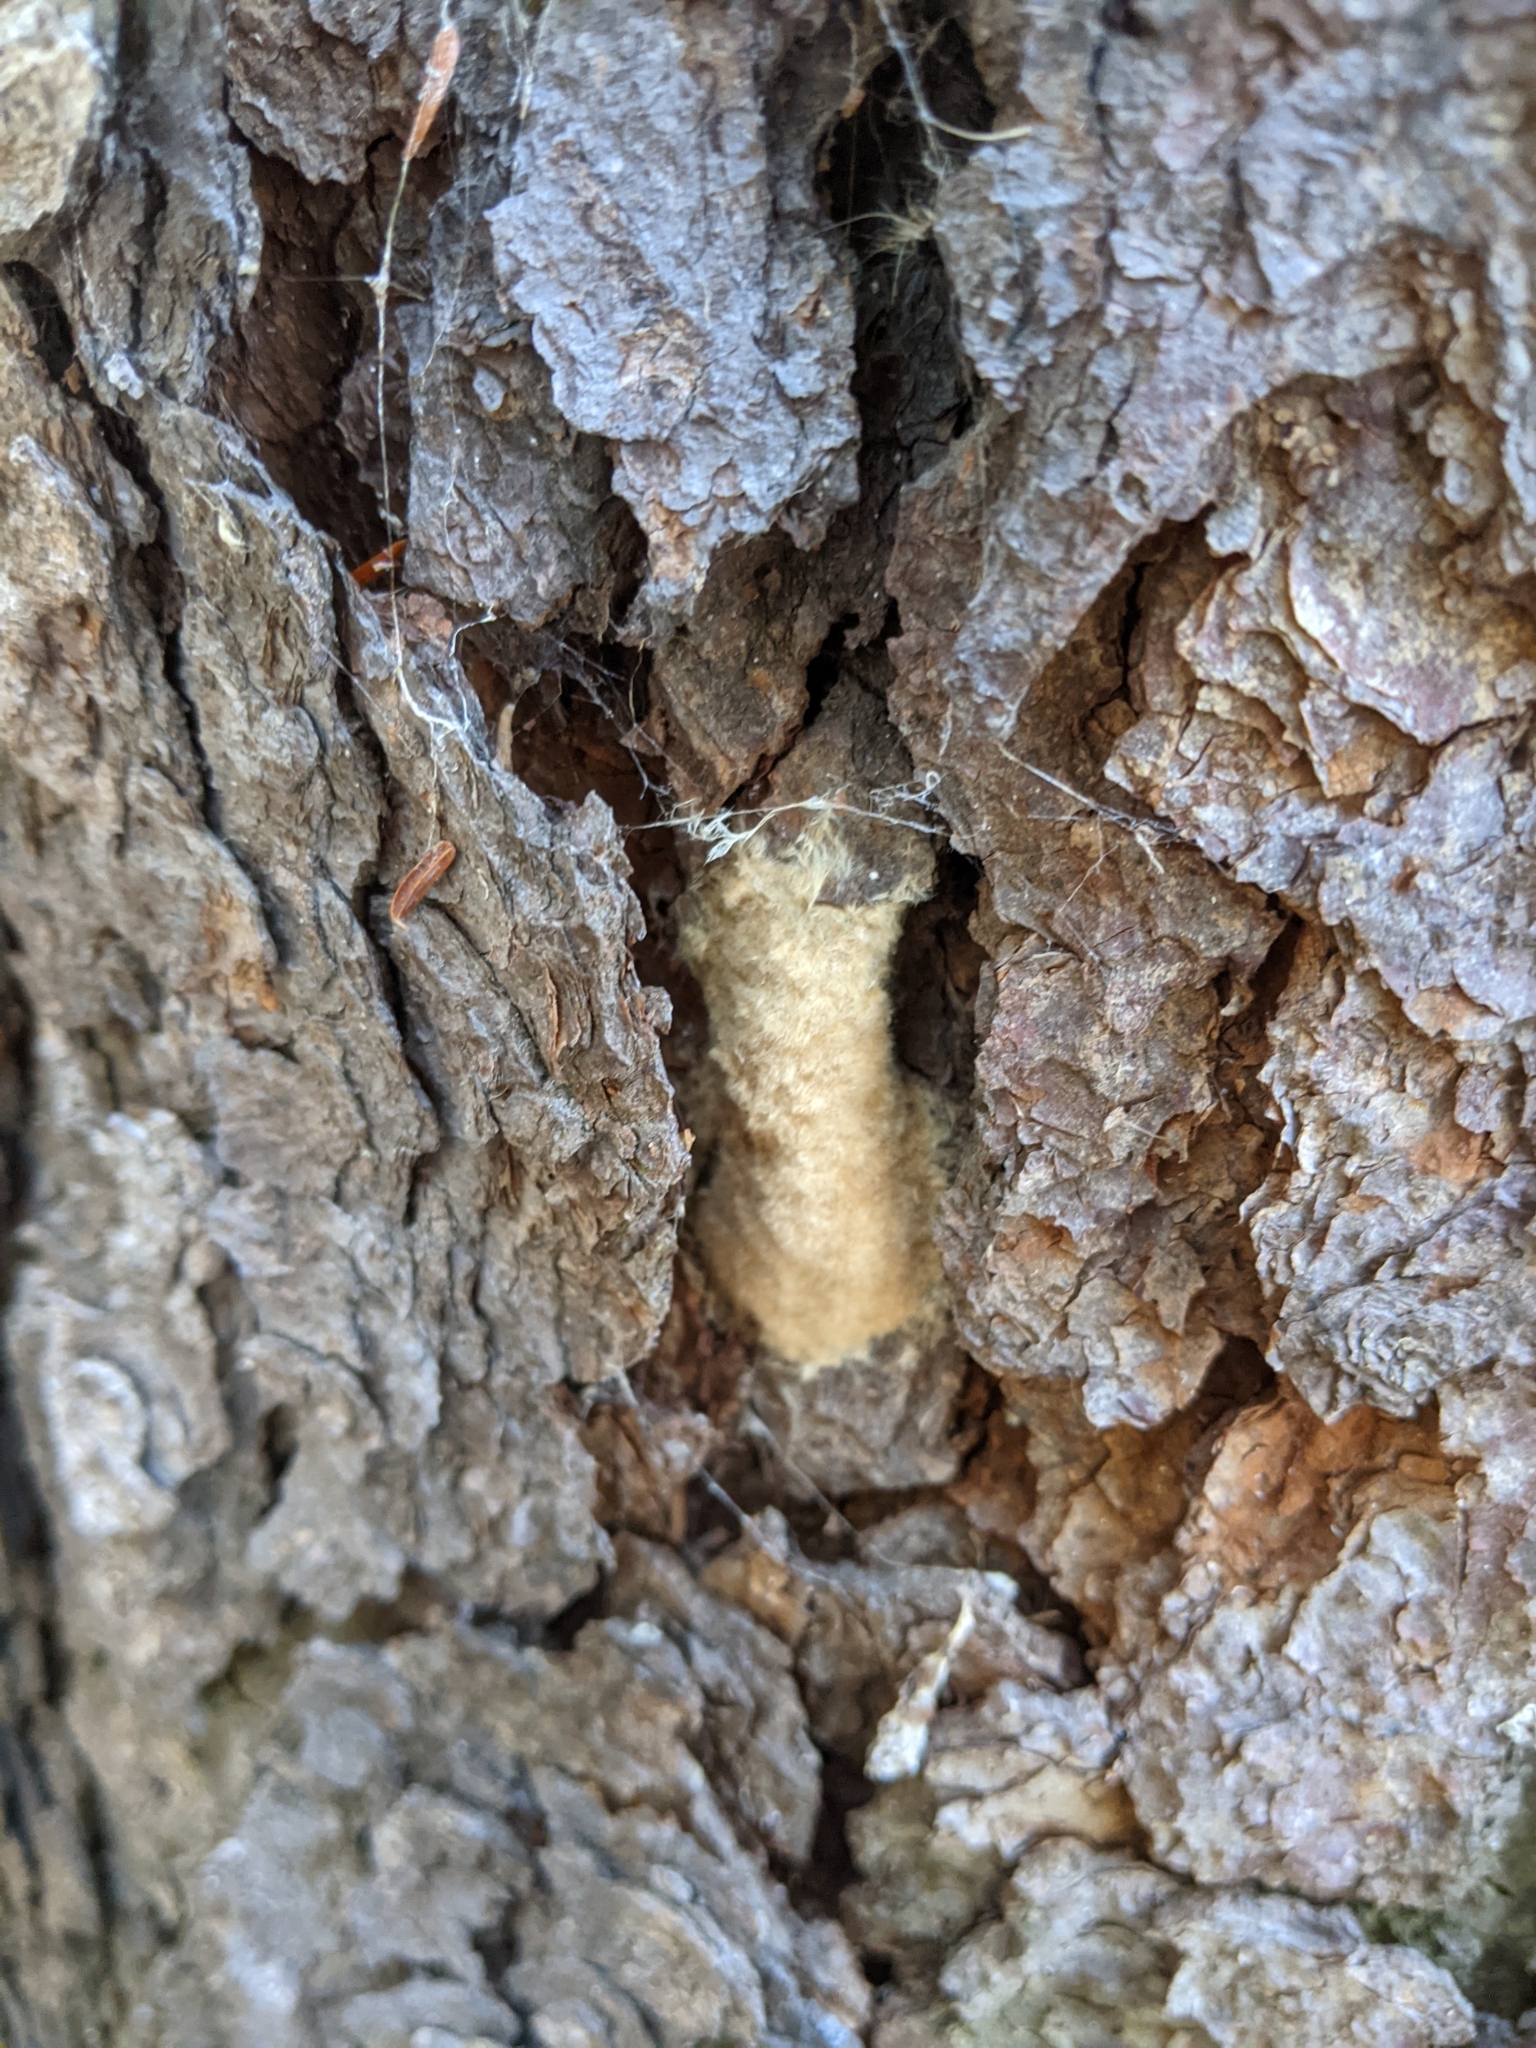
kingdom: Animalia
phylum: Arthropoda
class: Insecta
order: Lepidoptera
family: Erebidae
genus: Lymantria
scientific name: Lymantria dispar
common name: Gypsy moth
